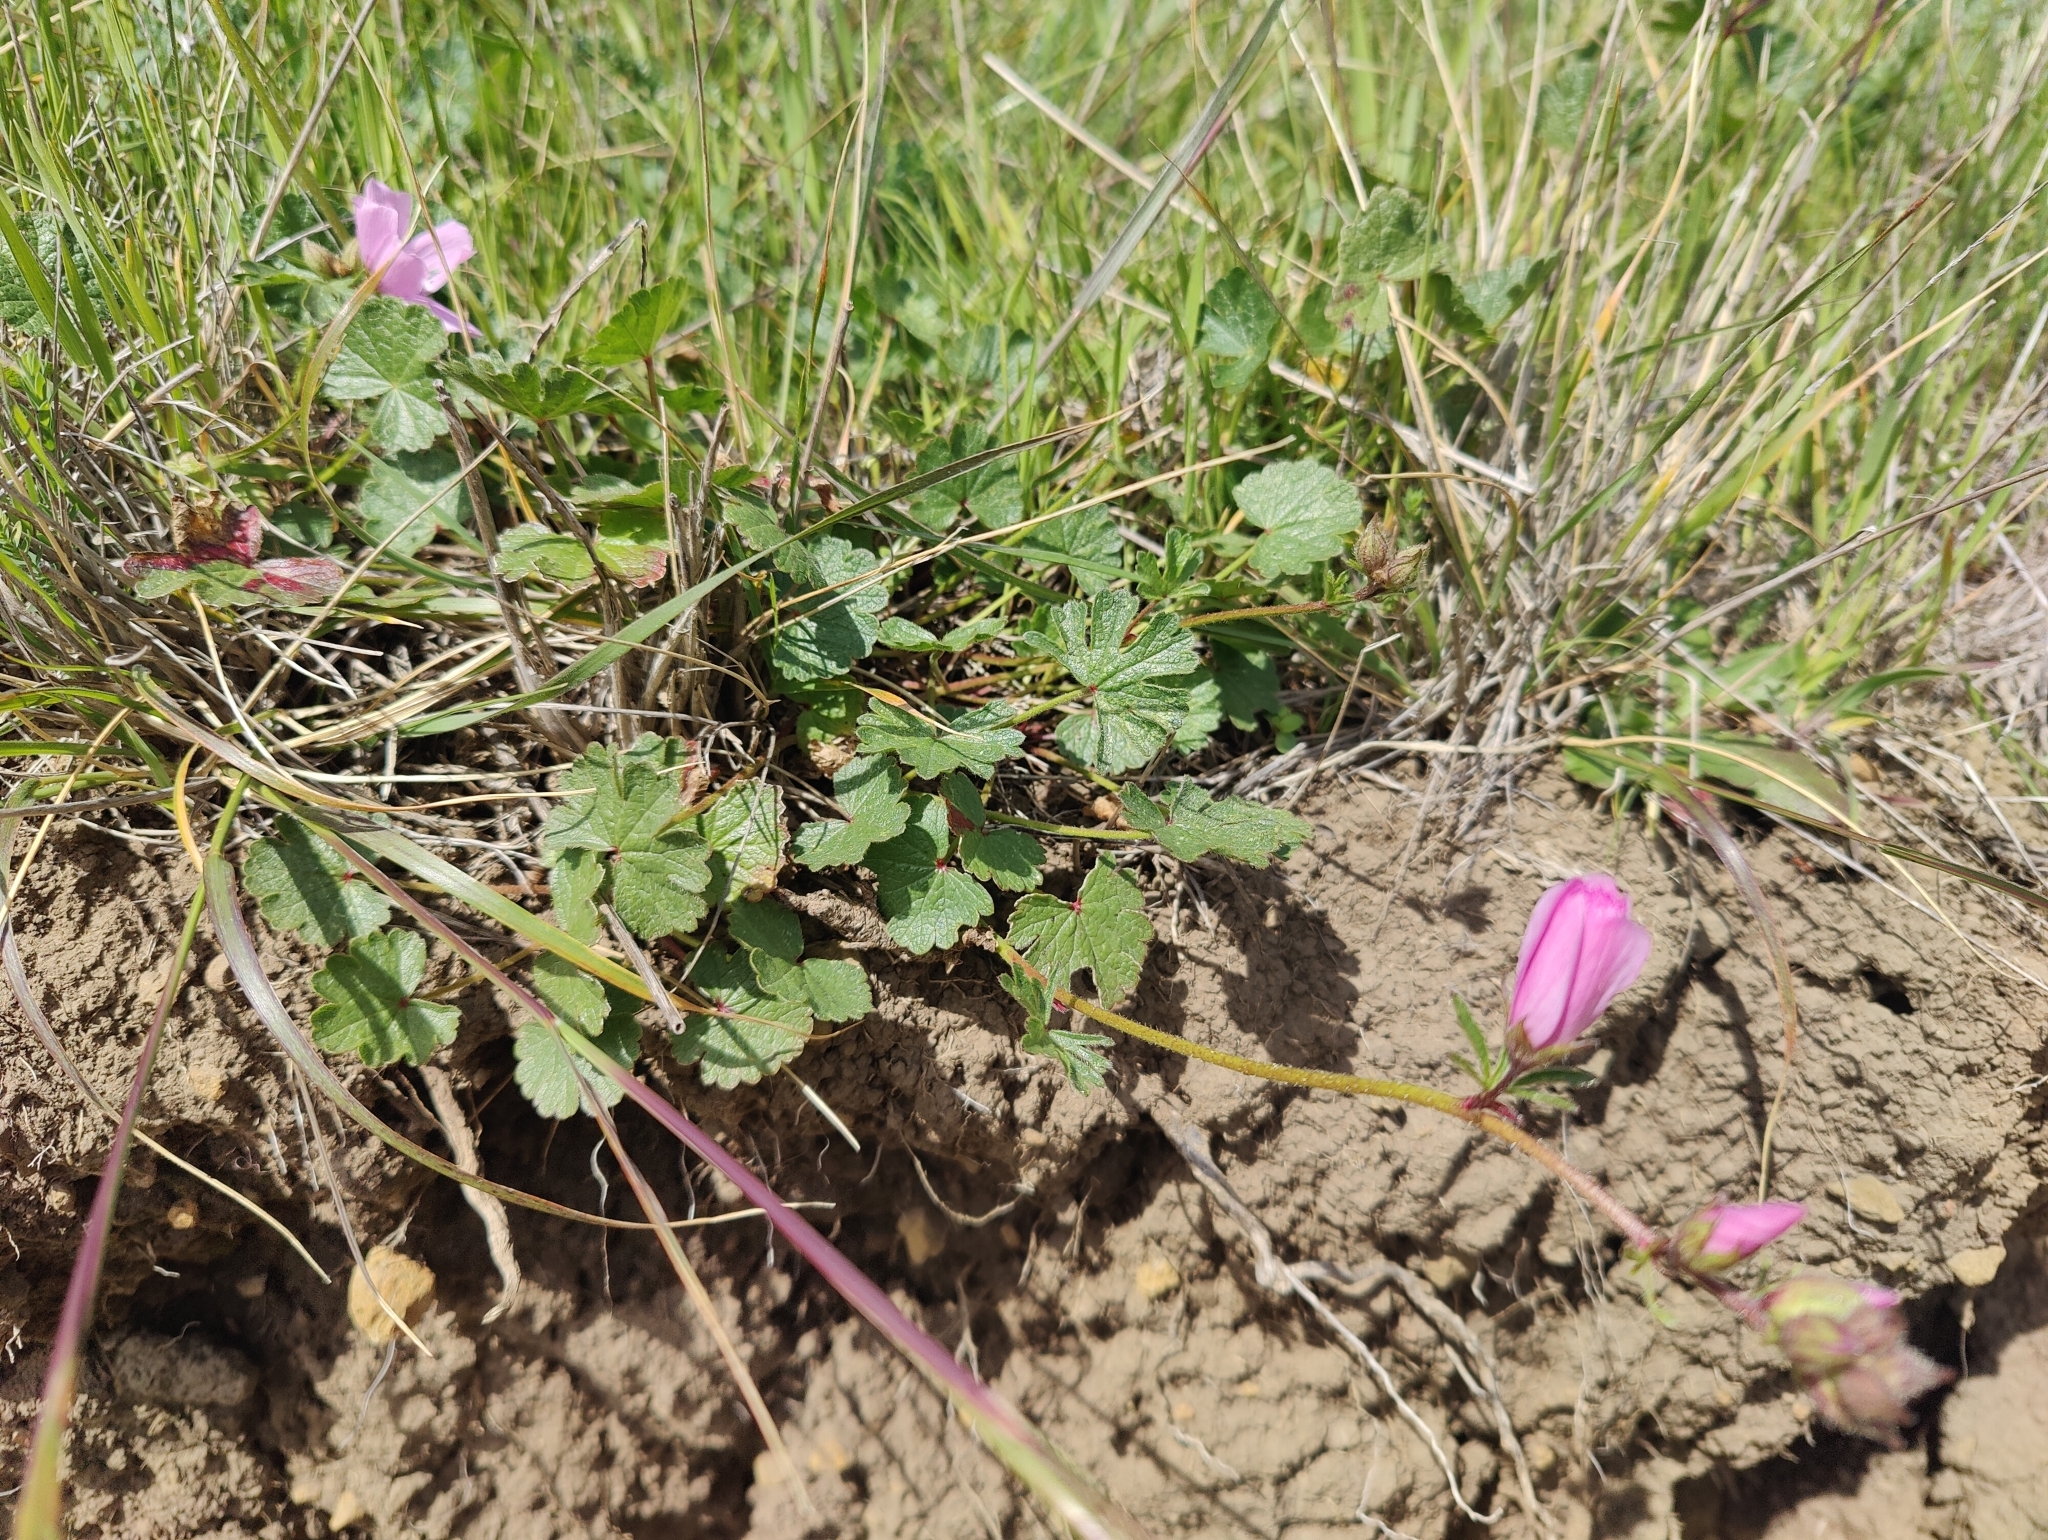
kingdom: Plantae
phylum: Tracheophyta
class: Magnoliopsida
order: Malvales
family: Malvaceae
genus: Sidalcea
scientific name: Sidalcea malviflora
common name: Greek mallow
